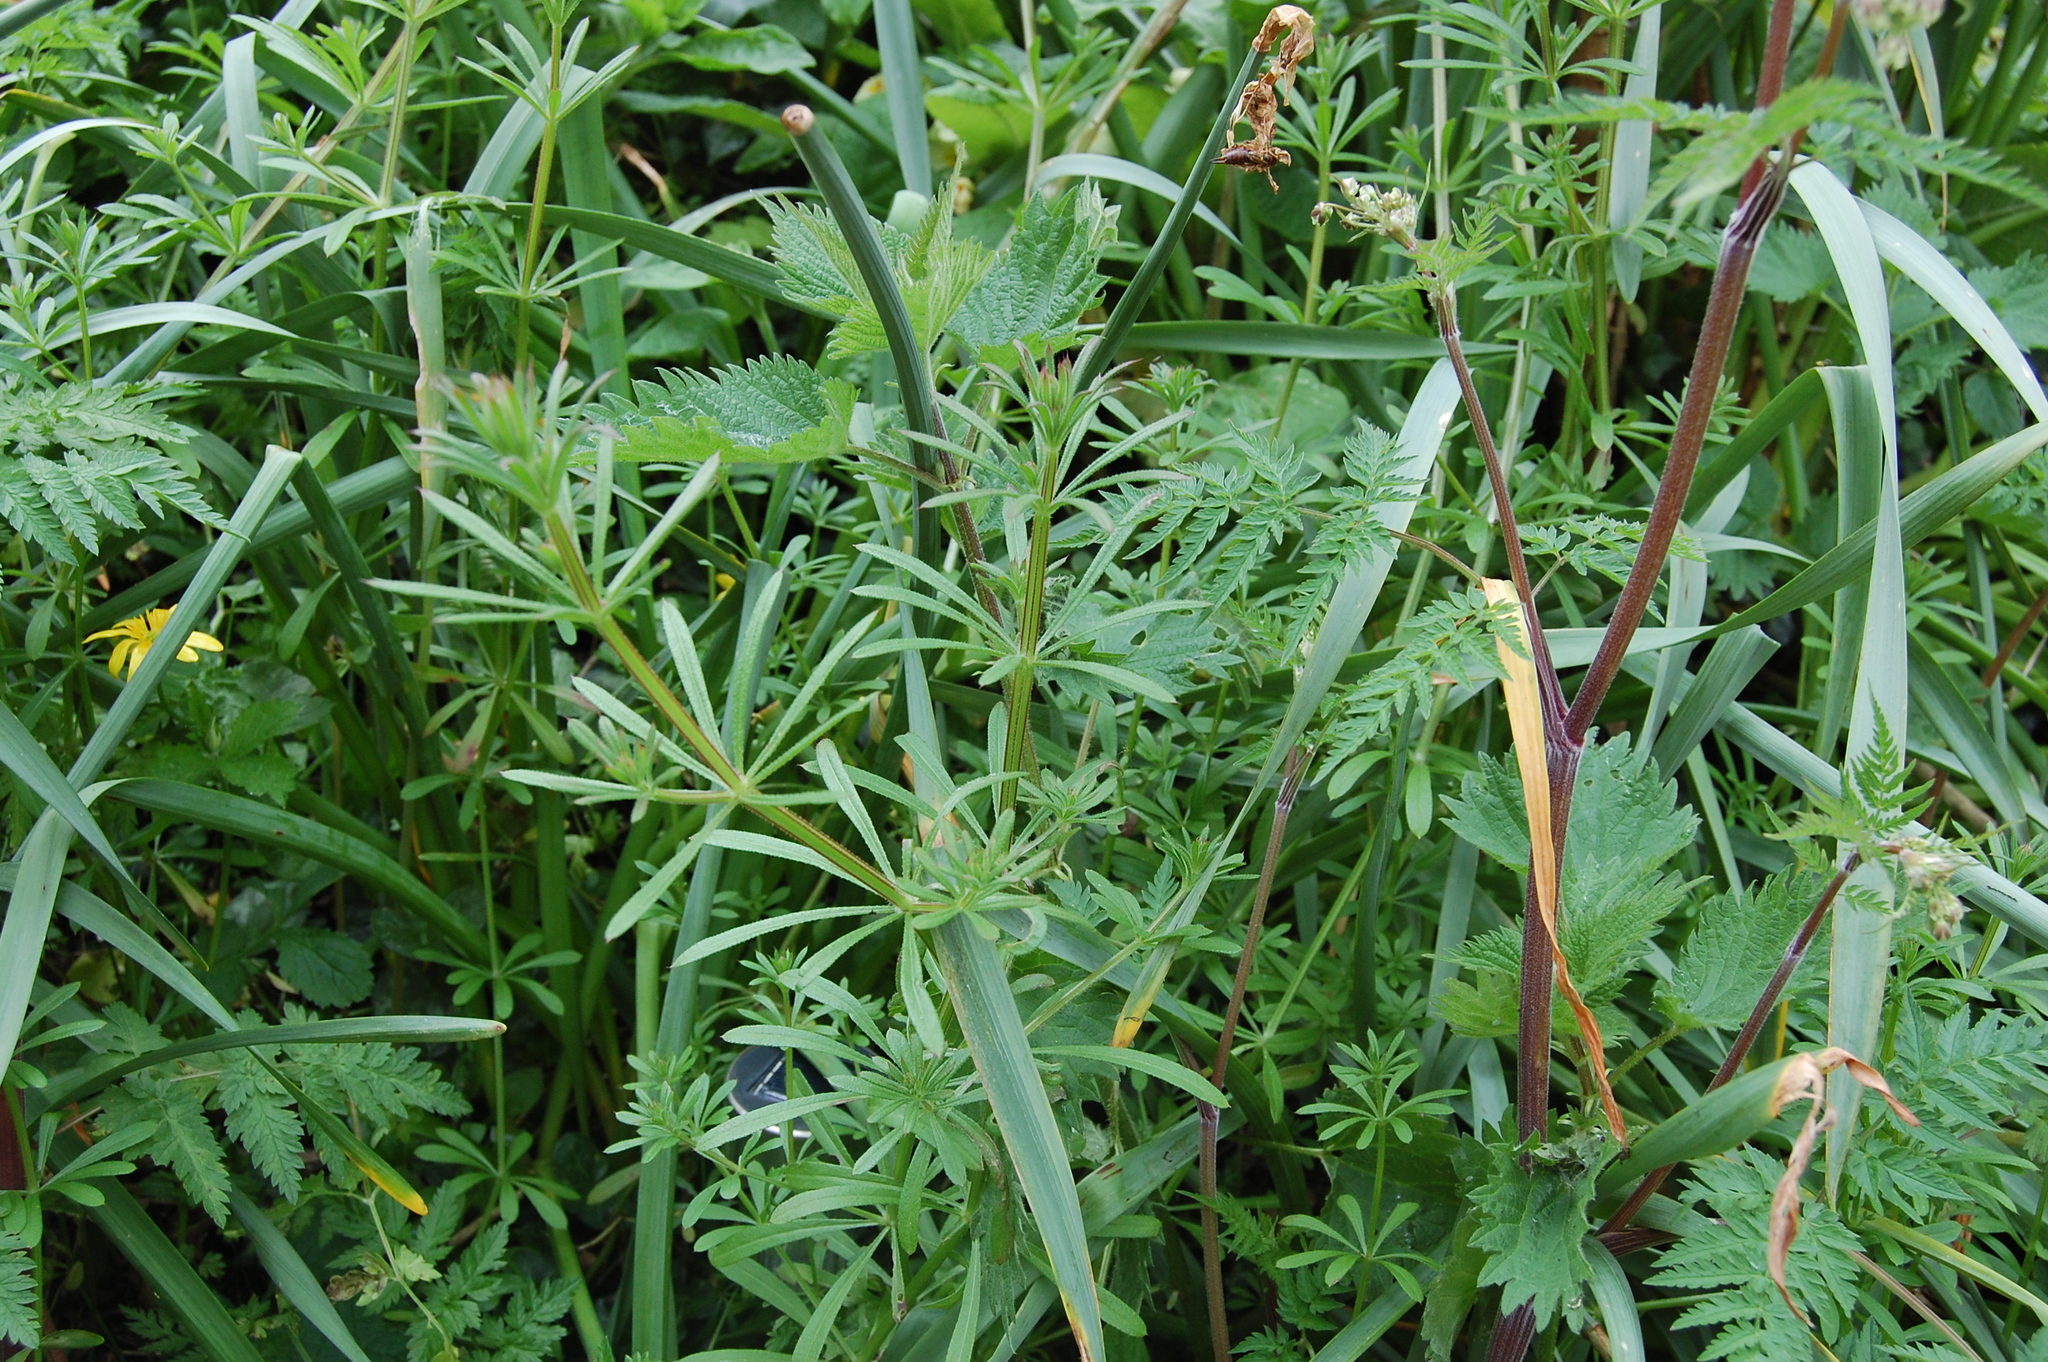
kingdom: Plantae
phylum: Tracheophyta
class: Magnoliopsida
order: Gentianales
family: Rubiaceae
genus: Galium
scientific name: Galium aparine
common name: Cleavers
